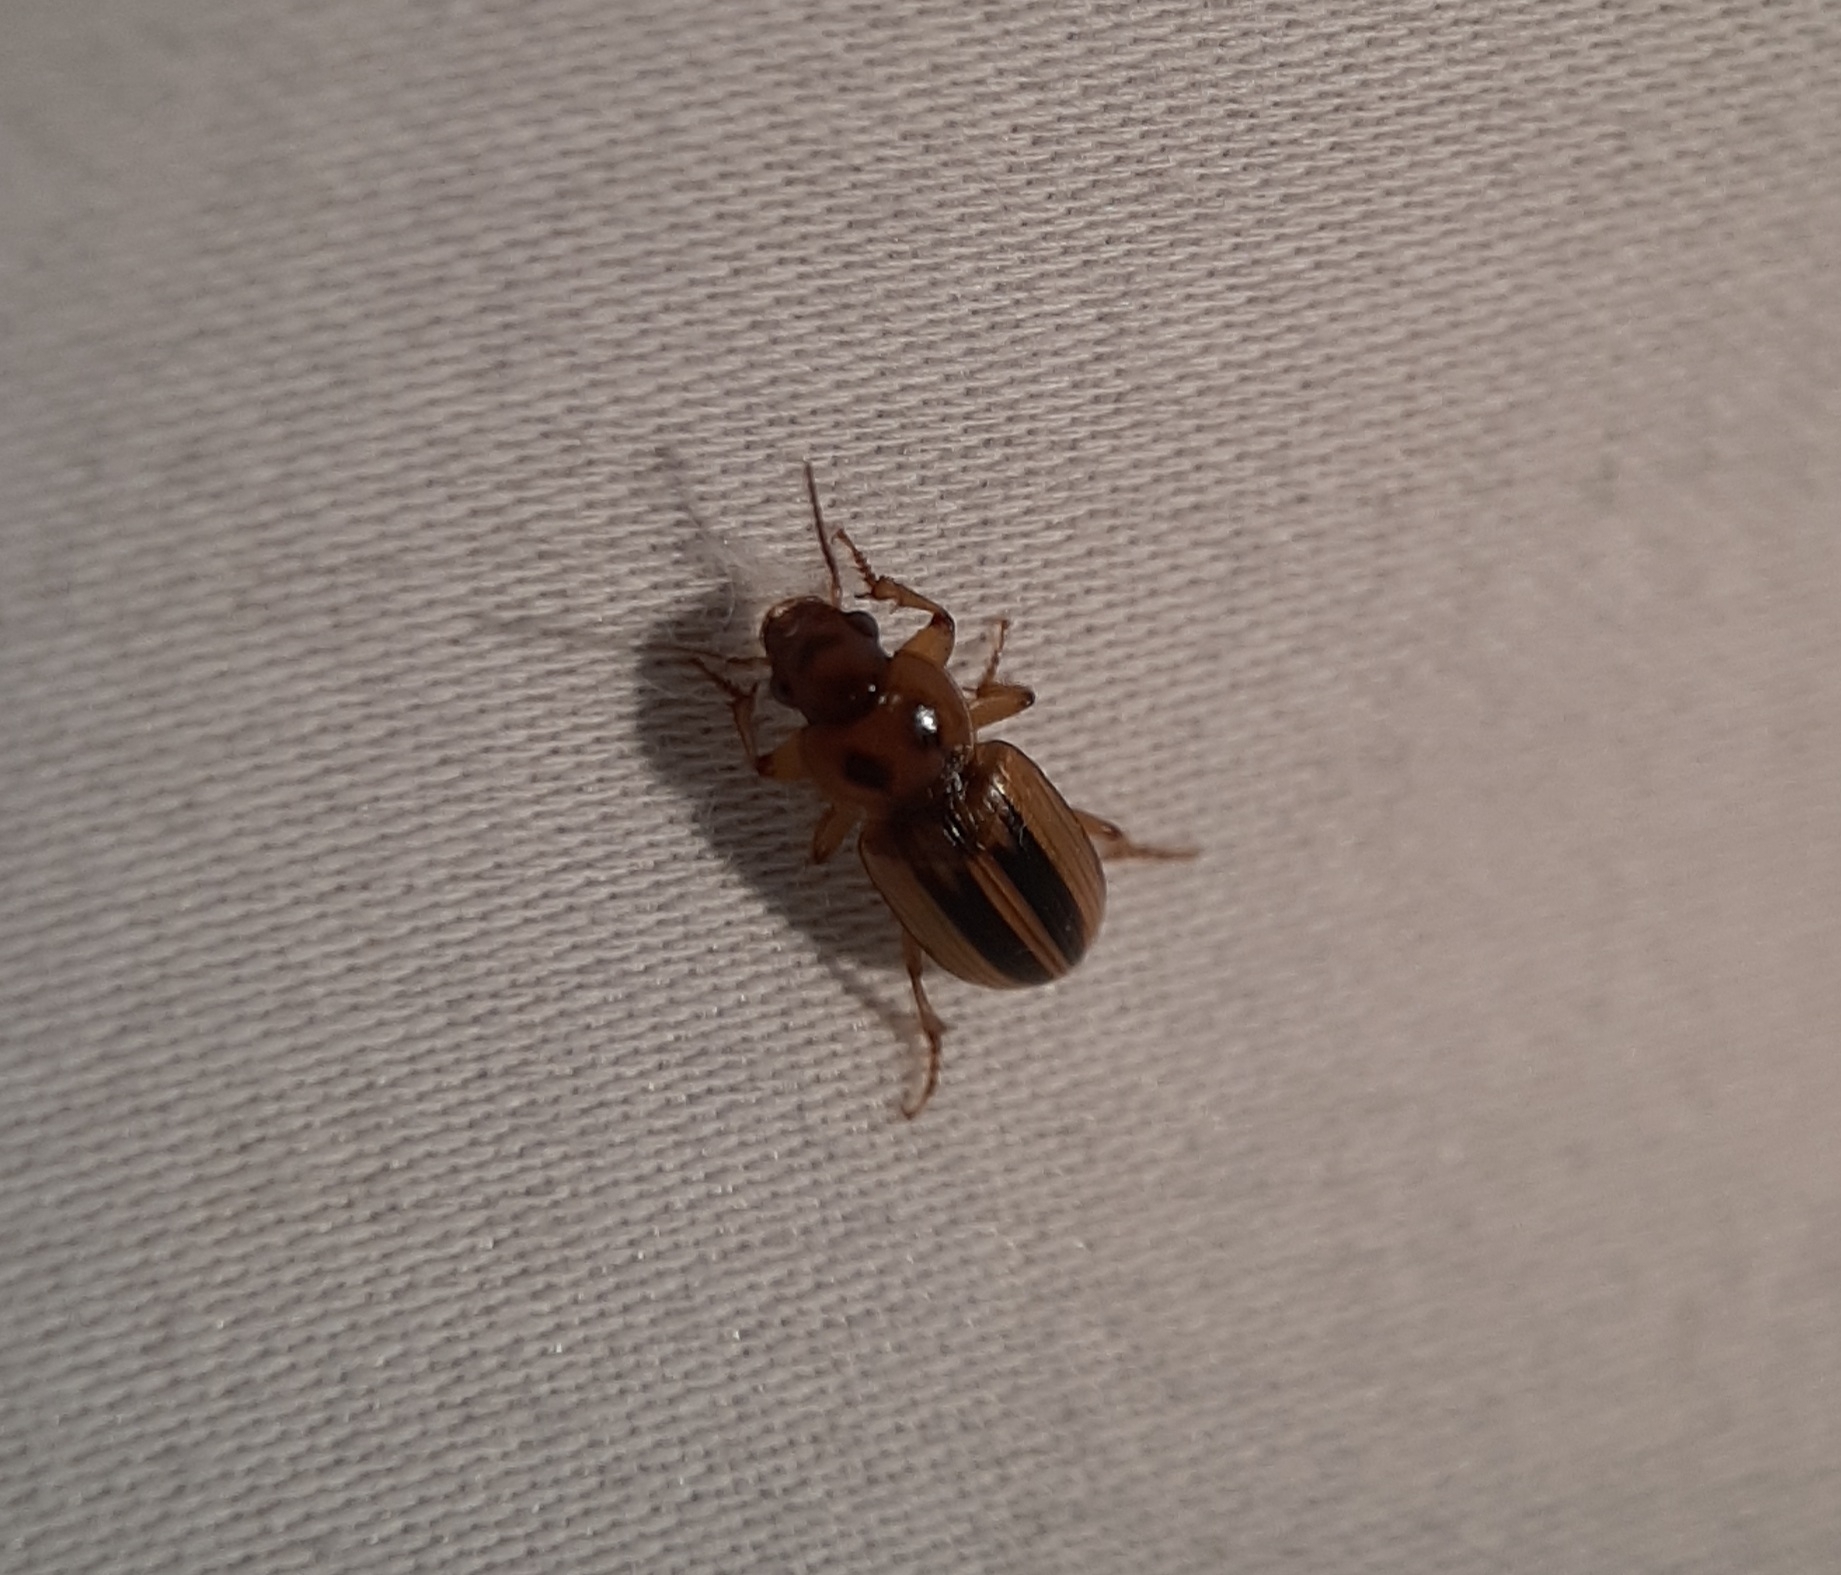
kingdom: Animalia
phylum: Arthropoda
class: Insecta
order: Coleoptera
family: Carabidae
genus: Stenolophus
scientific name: Stenolophus lineola
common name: Lined stenolophus
